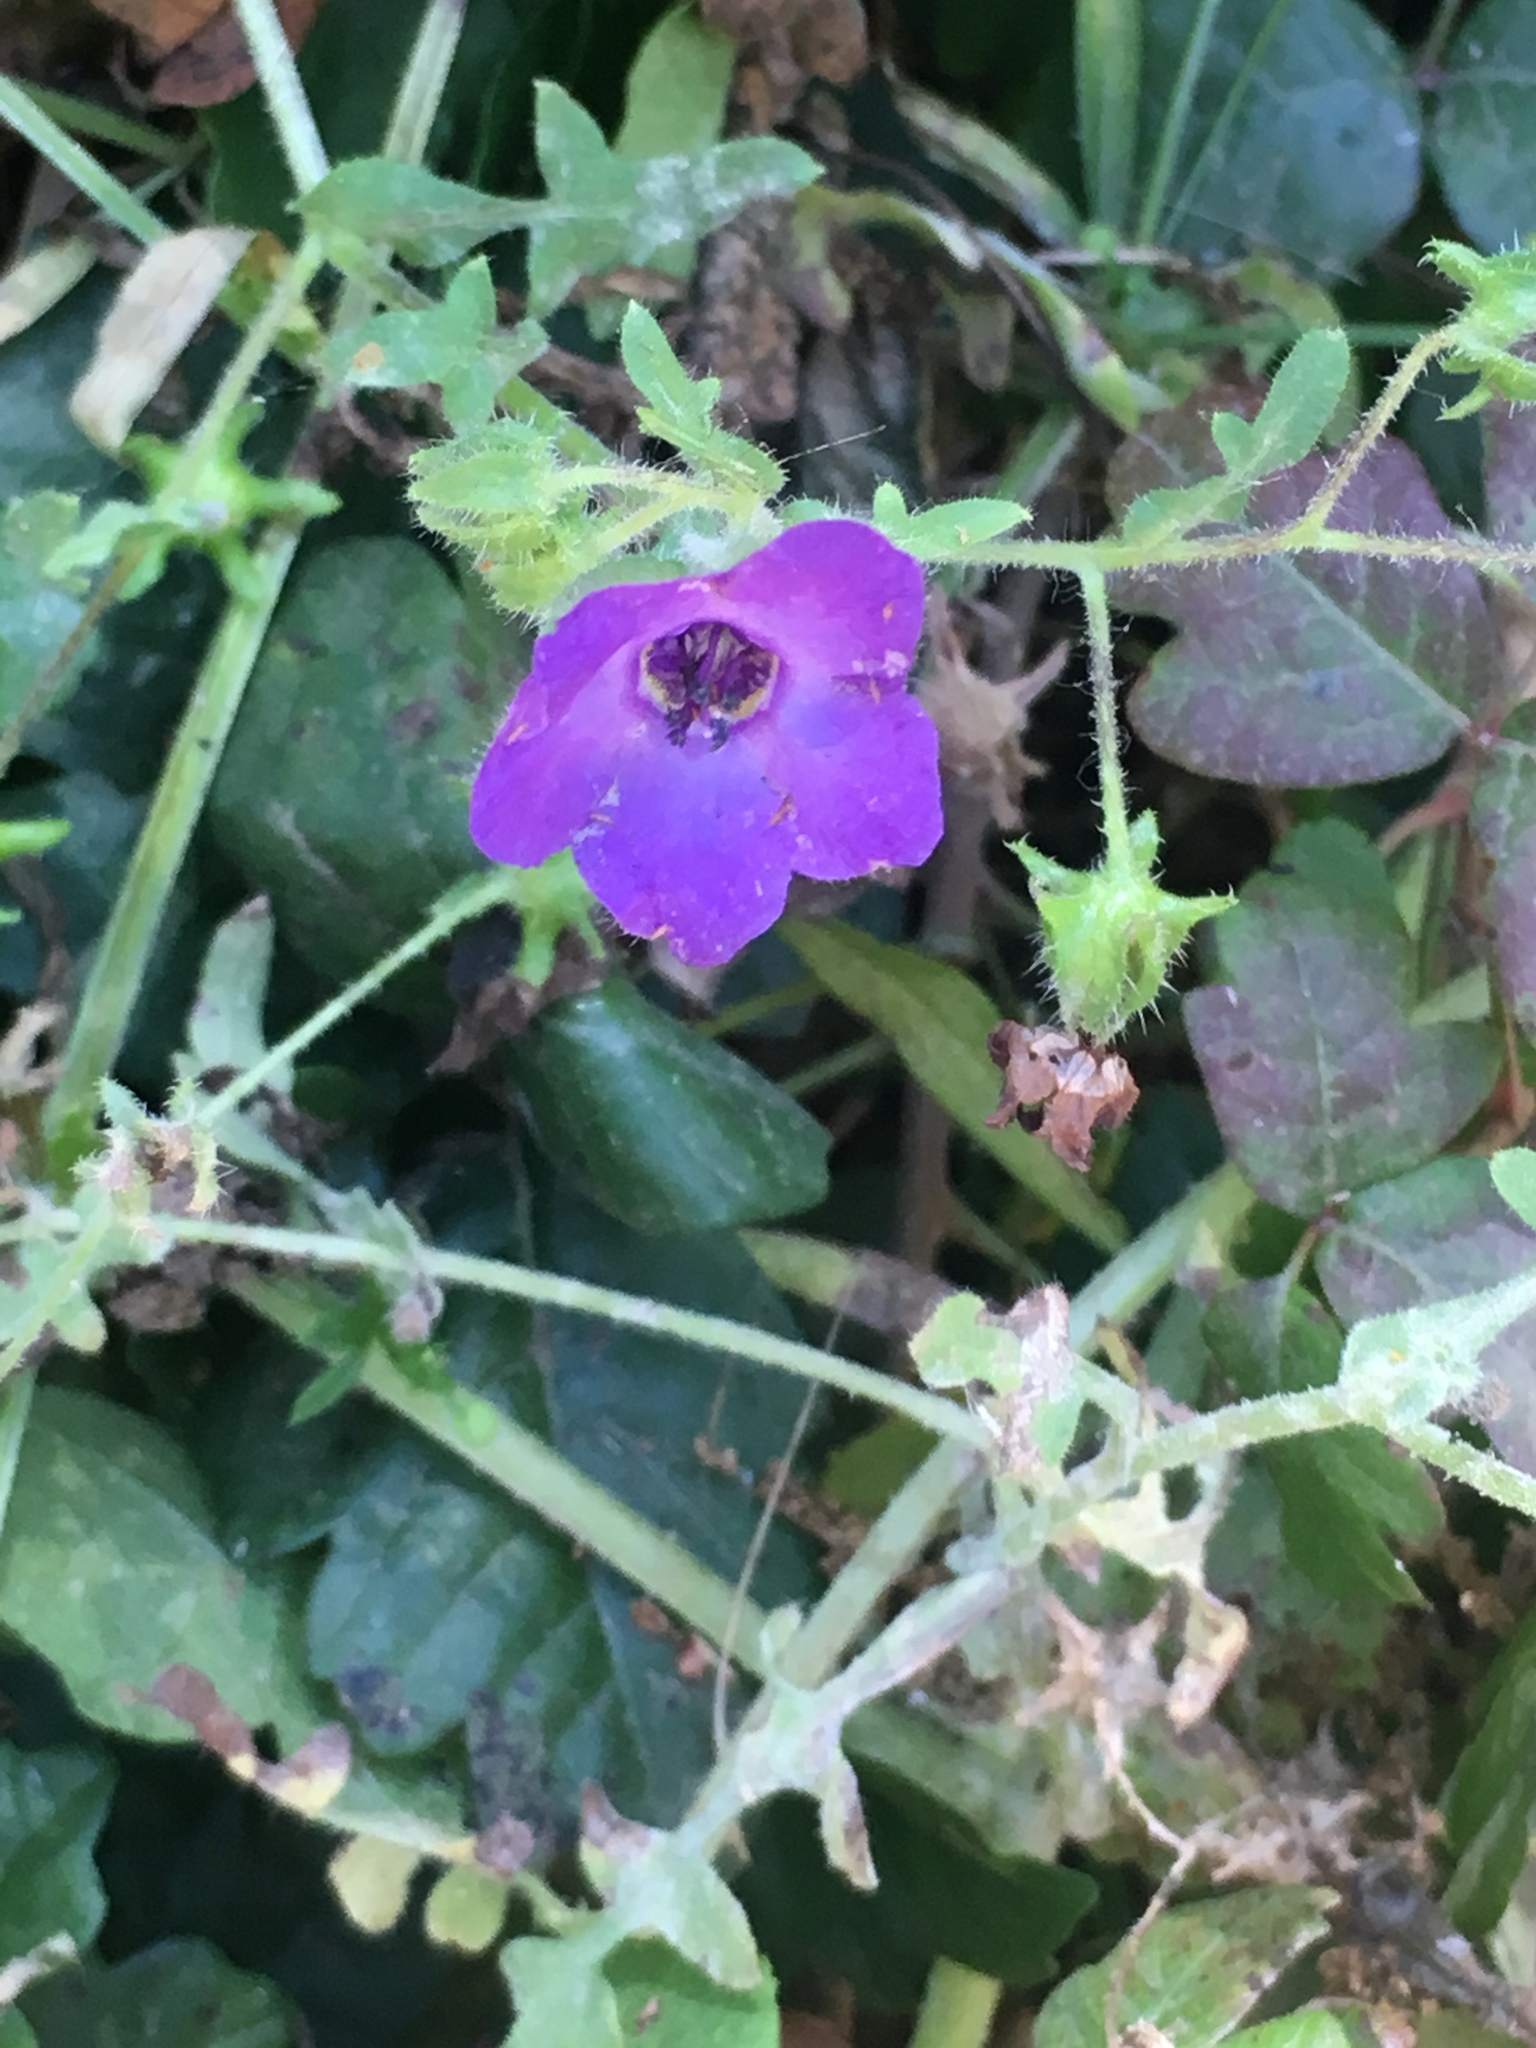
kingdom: Plantae
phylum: Tracheophyta
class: Magnoliopsida
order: Boraginales
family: Hydrophyllaceae
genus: Pholistoma
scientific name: Pholistoma auritum
